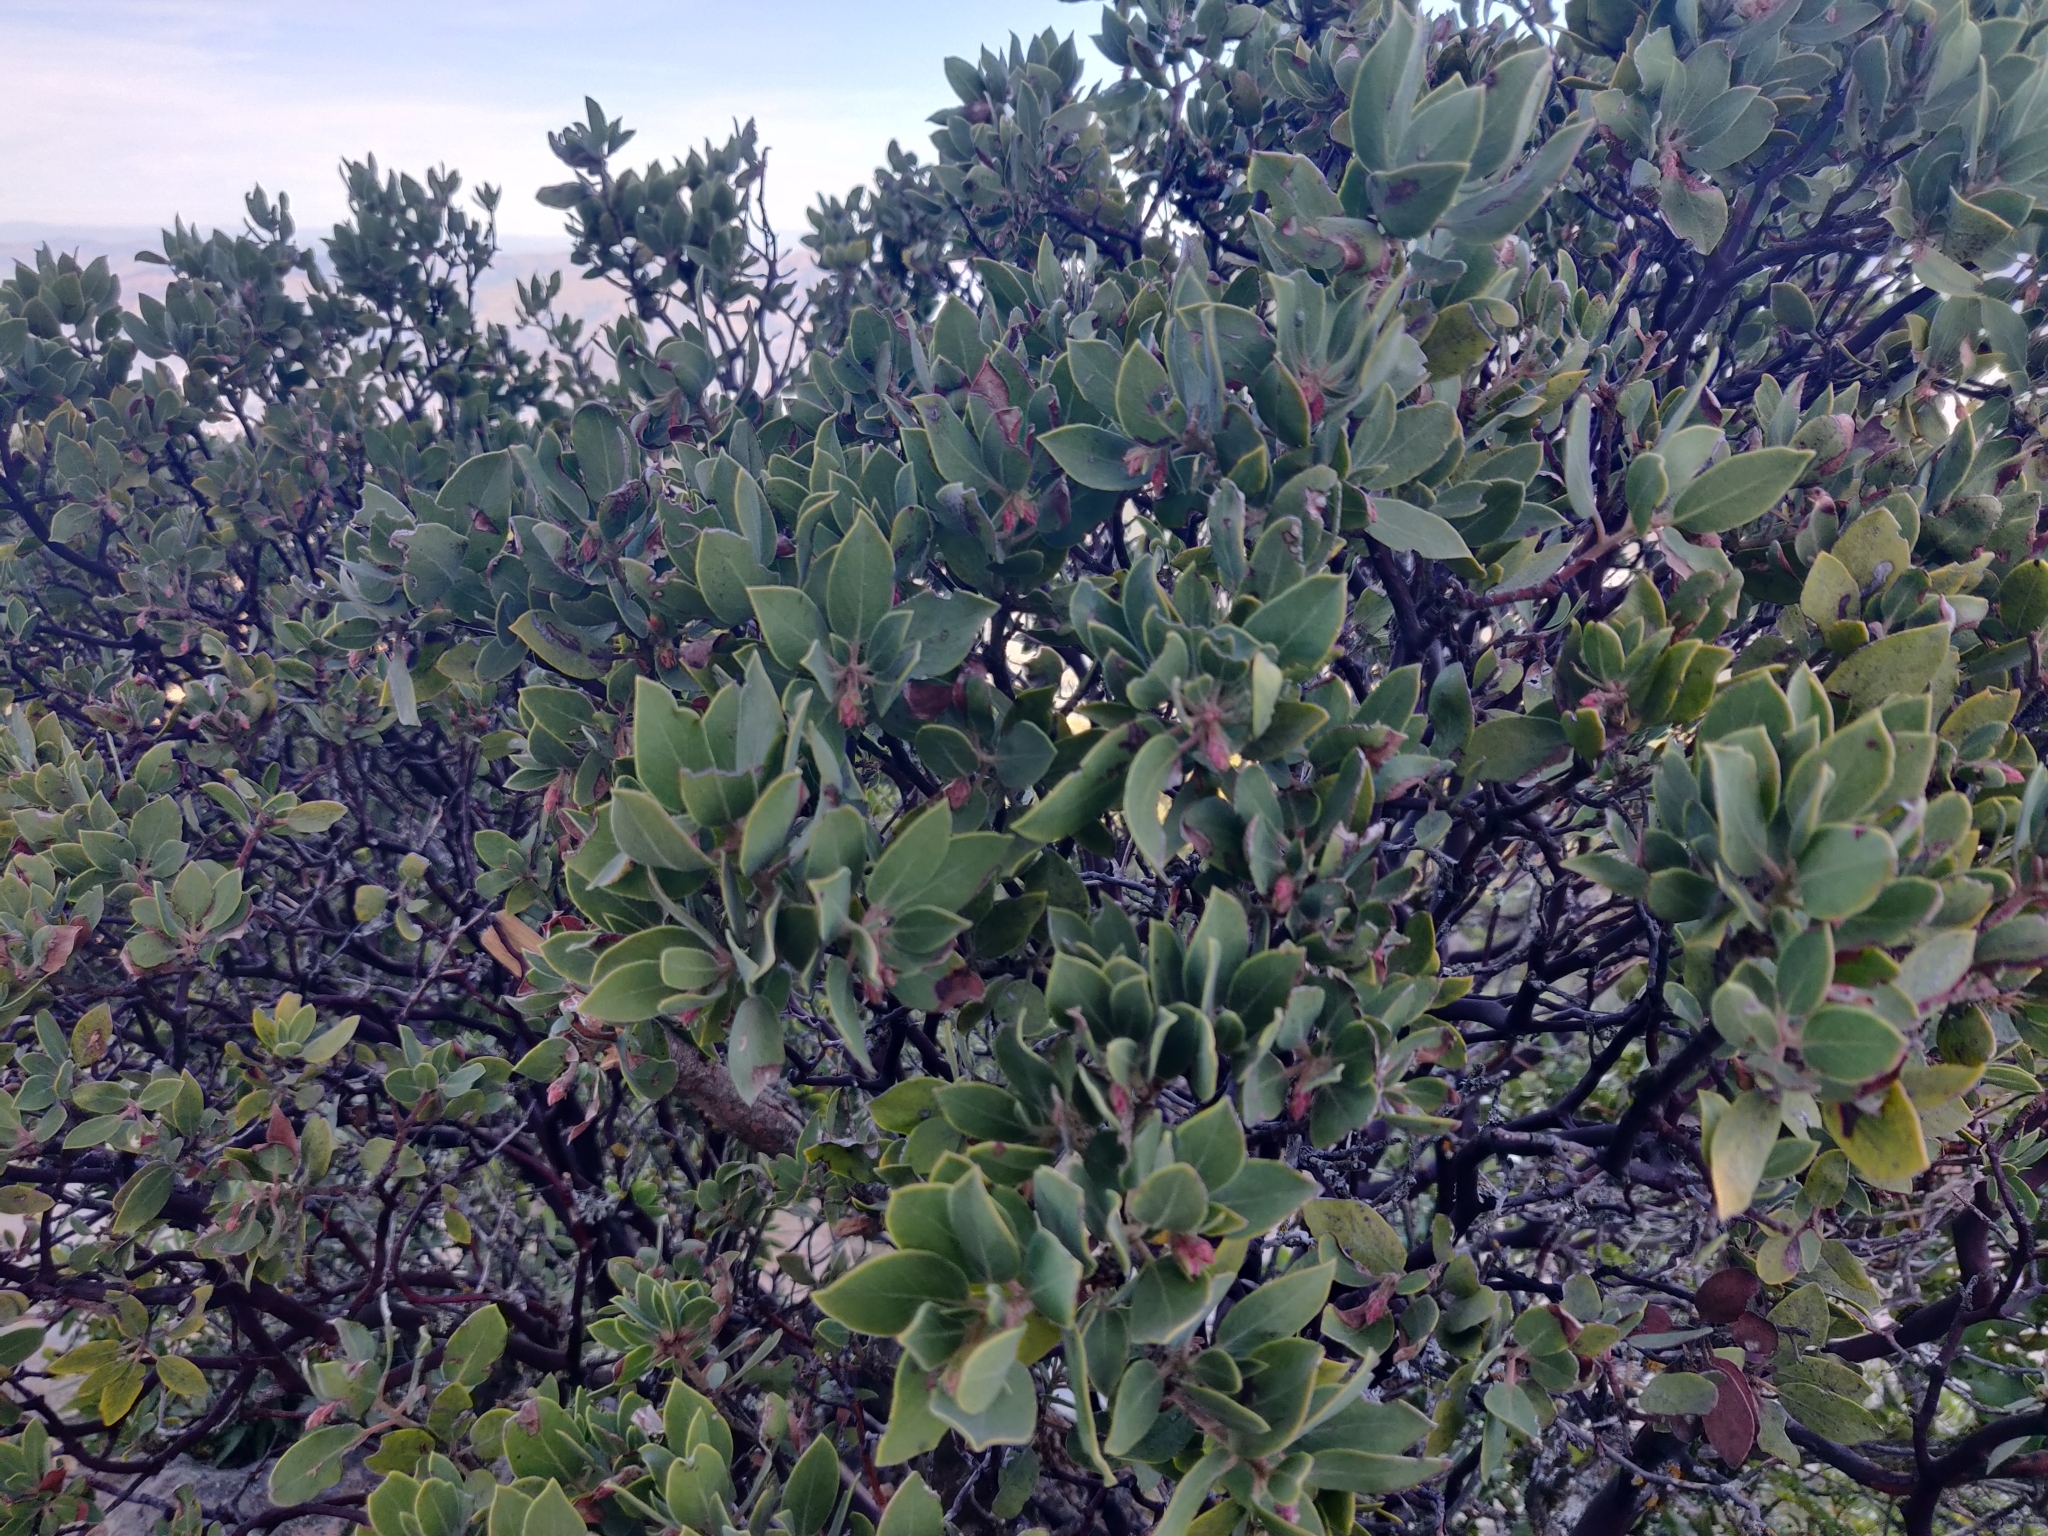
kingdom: Plantae
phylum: Tracheophyta
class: Magnoliopsida
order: Ericales
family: Ericaceae
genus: Arctostaphylos
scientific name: Arctostaphylos glandulosa
